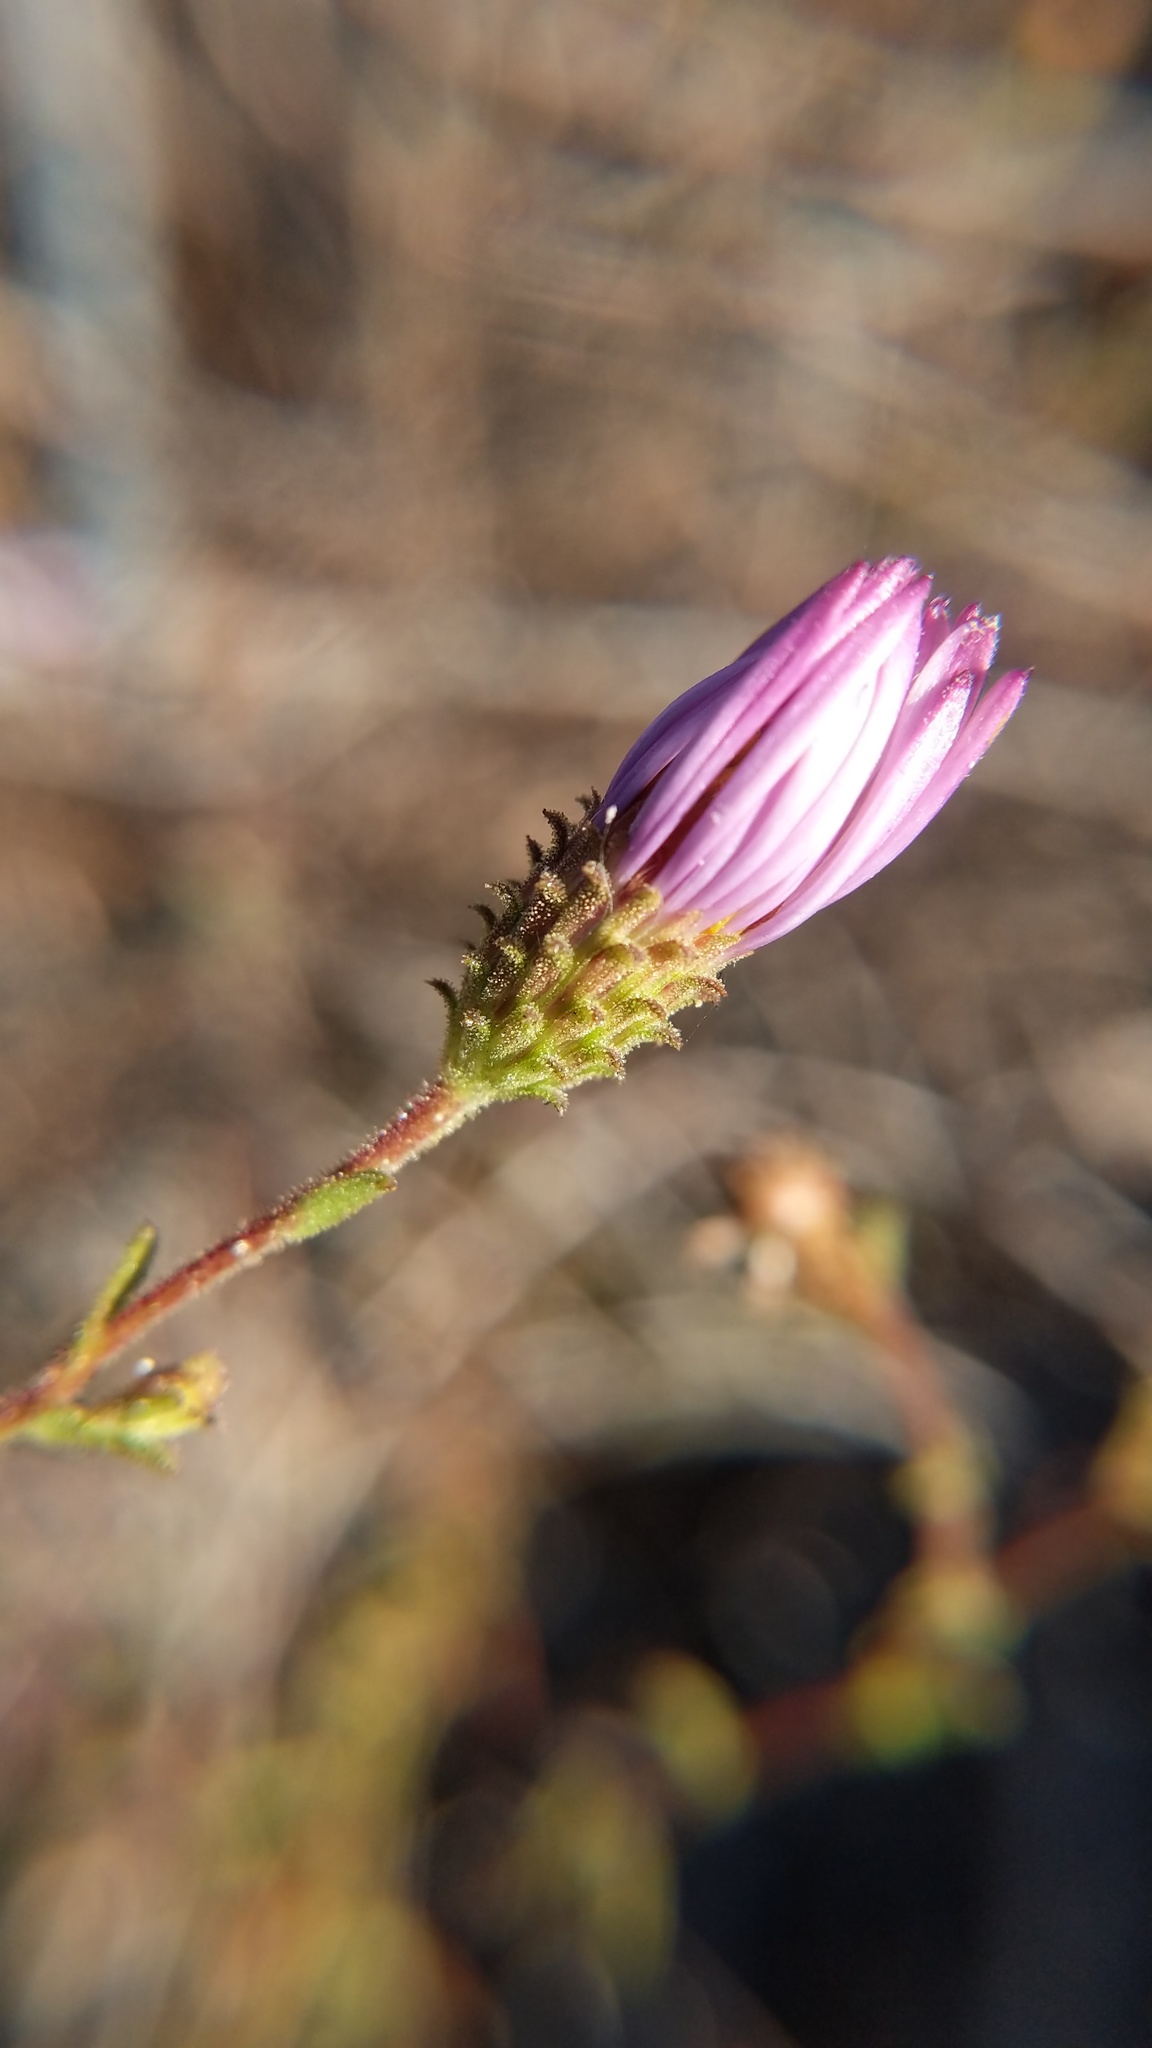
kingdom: Plantae
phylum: Tracheophyta
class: Magnoliopsida
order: Asterales
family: Asteraceae
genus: Corethrogyne
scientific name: Corethrogyne filaginifolia
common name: Sand-aster
